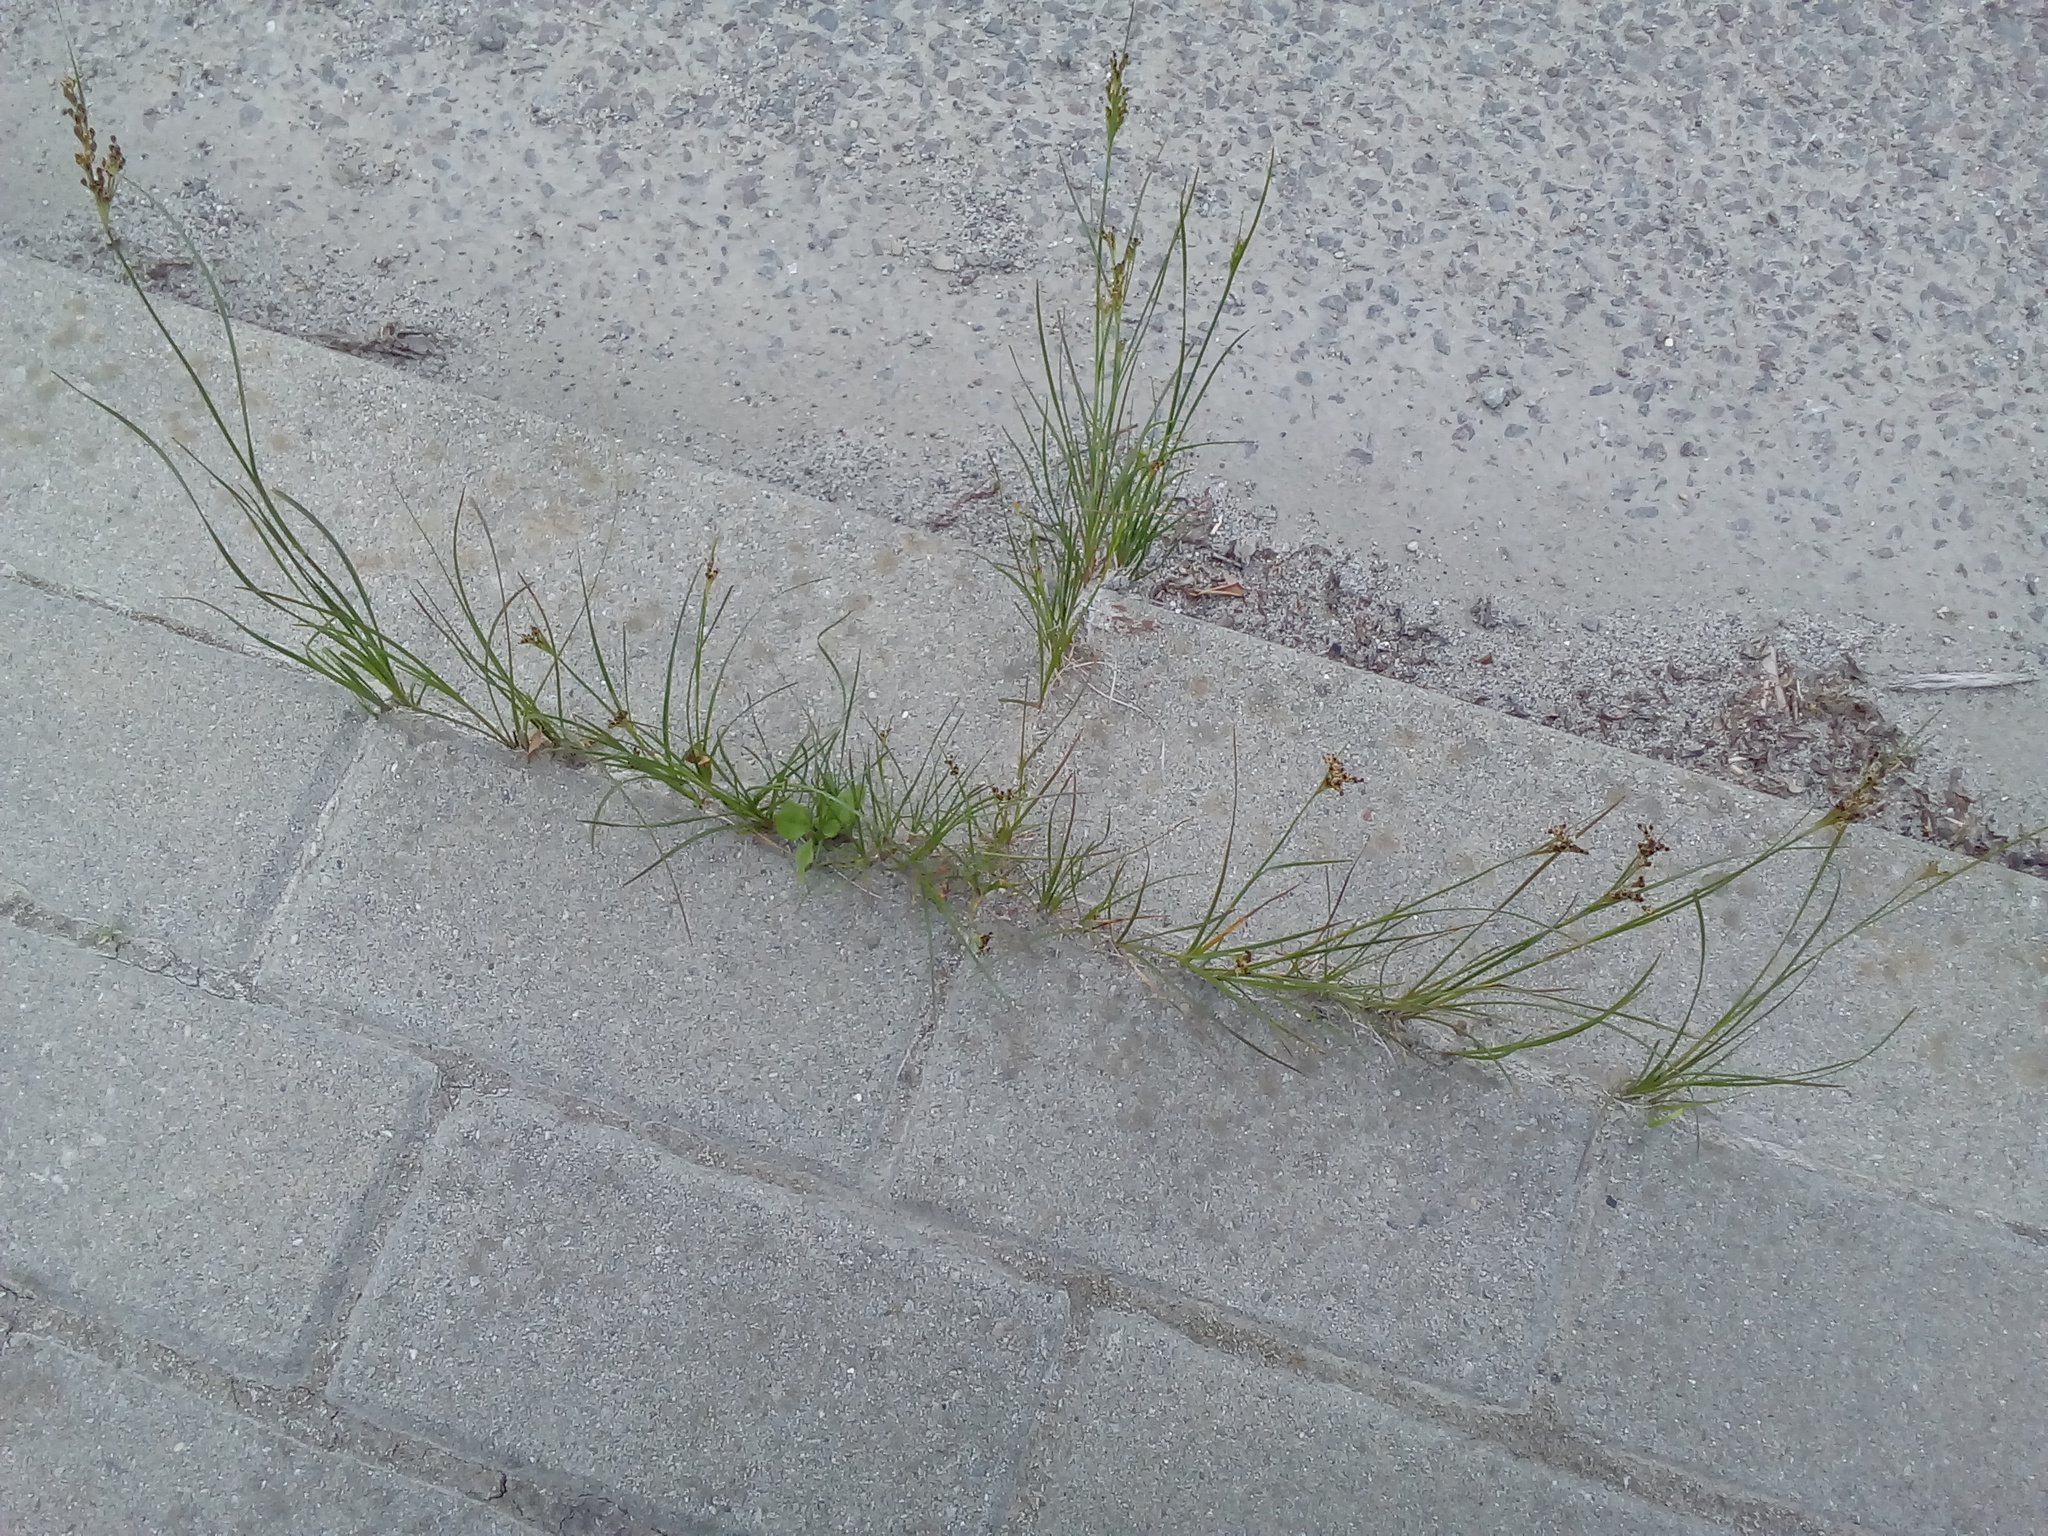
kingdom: Plantae
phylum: Tracheophyta
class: Liliopsida
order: Poales
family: Juncaceae
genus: Juncus
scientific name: Juncus compressus
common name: Round-fruited rush
